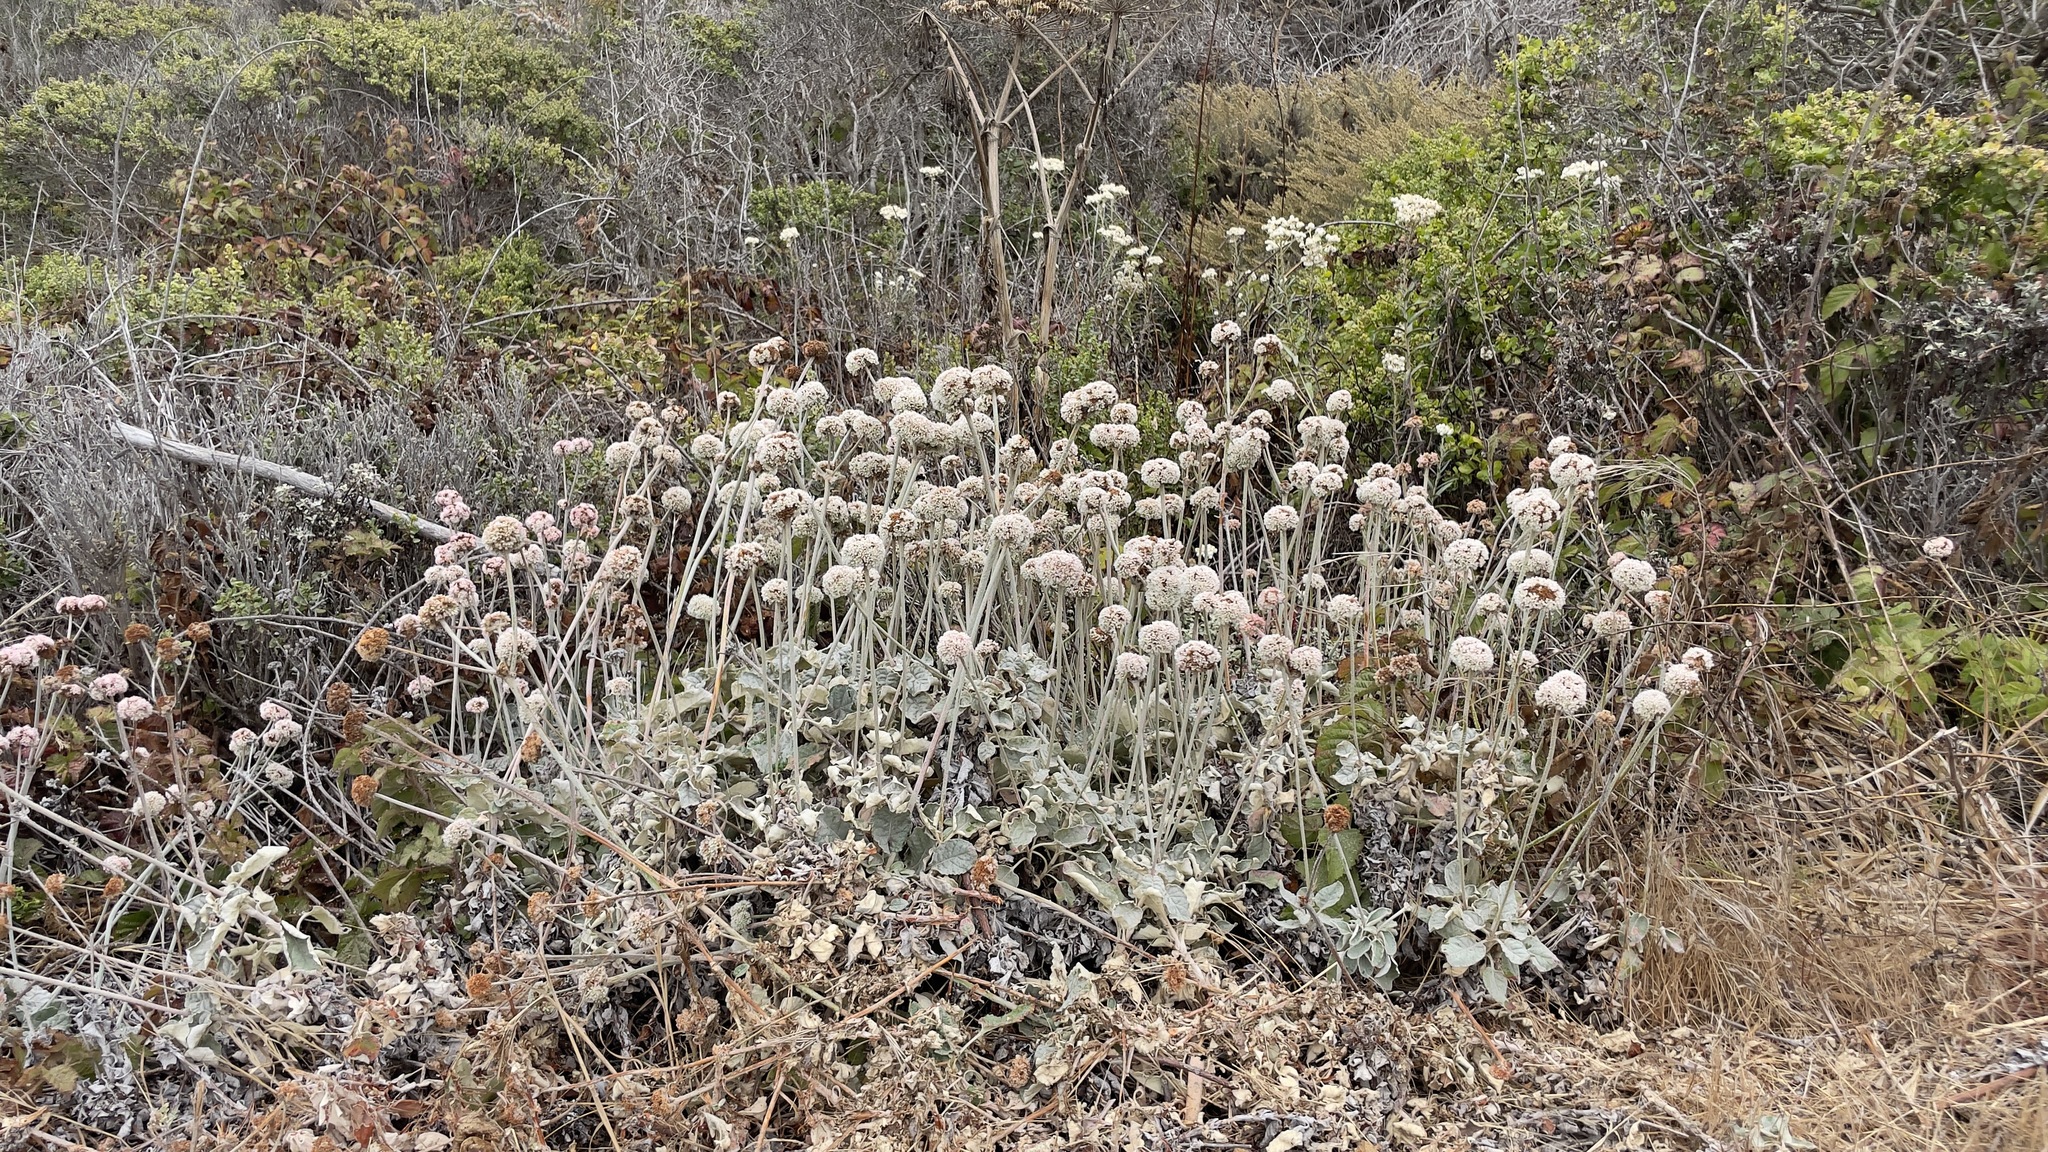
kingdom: Plantae
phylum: Tracheophyta
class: Magnoliopsida
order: Caryophyllales
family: Polygonaceae
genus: Eriogonum
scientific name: Eriogonum latifolium
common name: Seaside wild buckwheat
